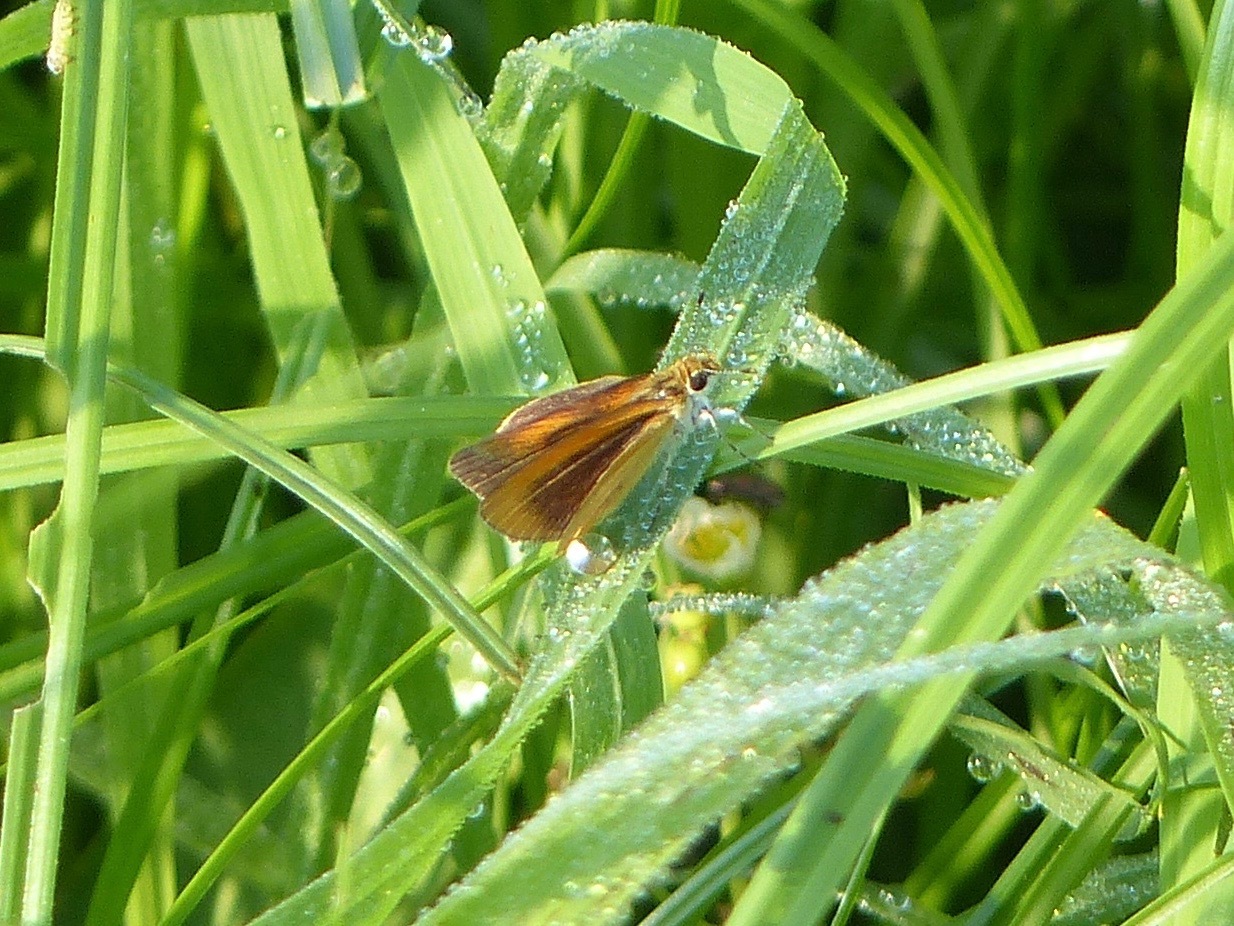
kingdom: Animalia
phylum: Arthropoda
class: Insecta
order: Lepidoptera
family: Hesperiidae
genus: Ancyloxypha
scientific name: Ancyloxypha numitor
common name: Least skipper
